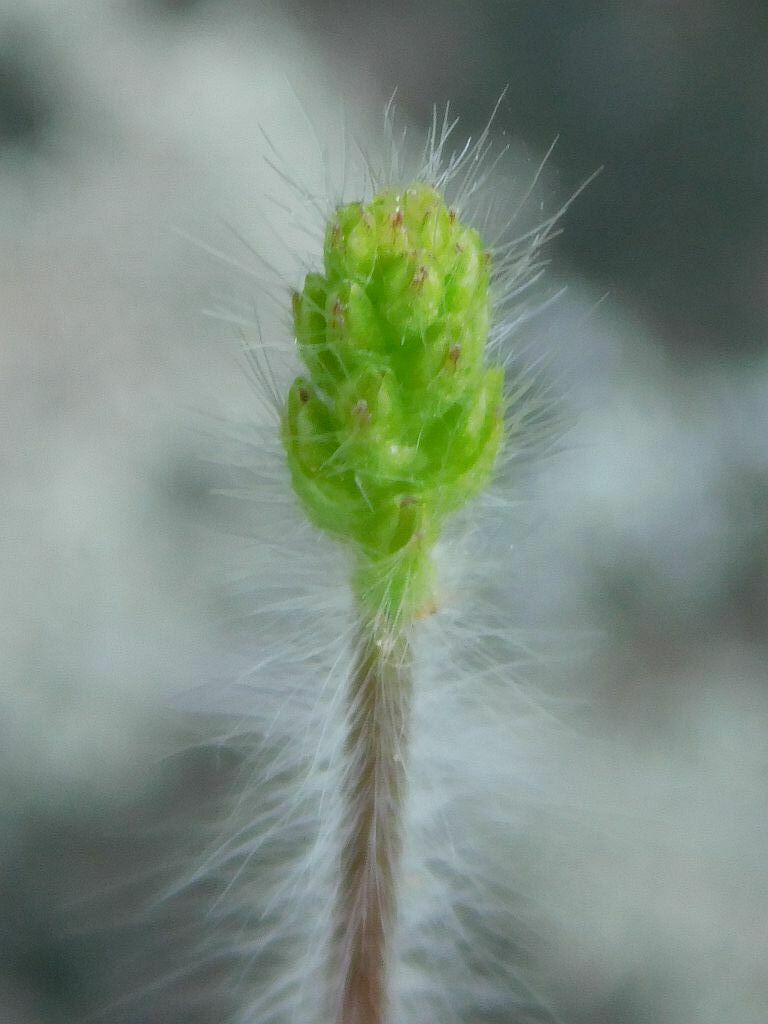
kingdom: Plantae
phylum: Tracheophyta
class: Liliopsida
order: Asparagales
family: Orchidaceae
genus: Holothrix
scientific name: Holothrix villosa
